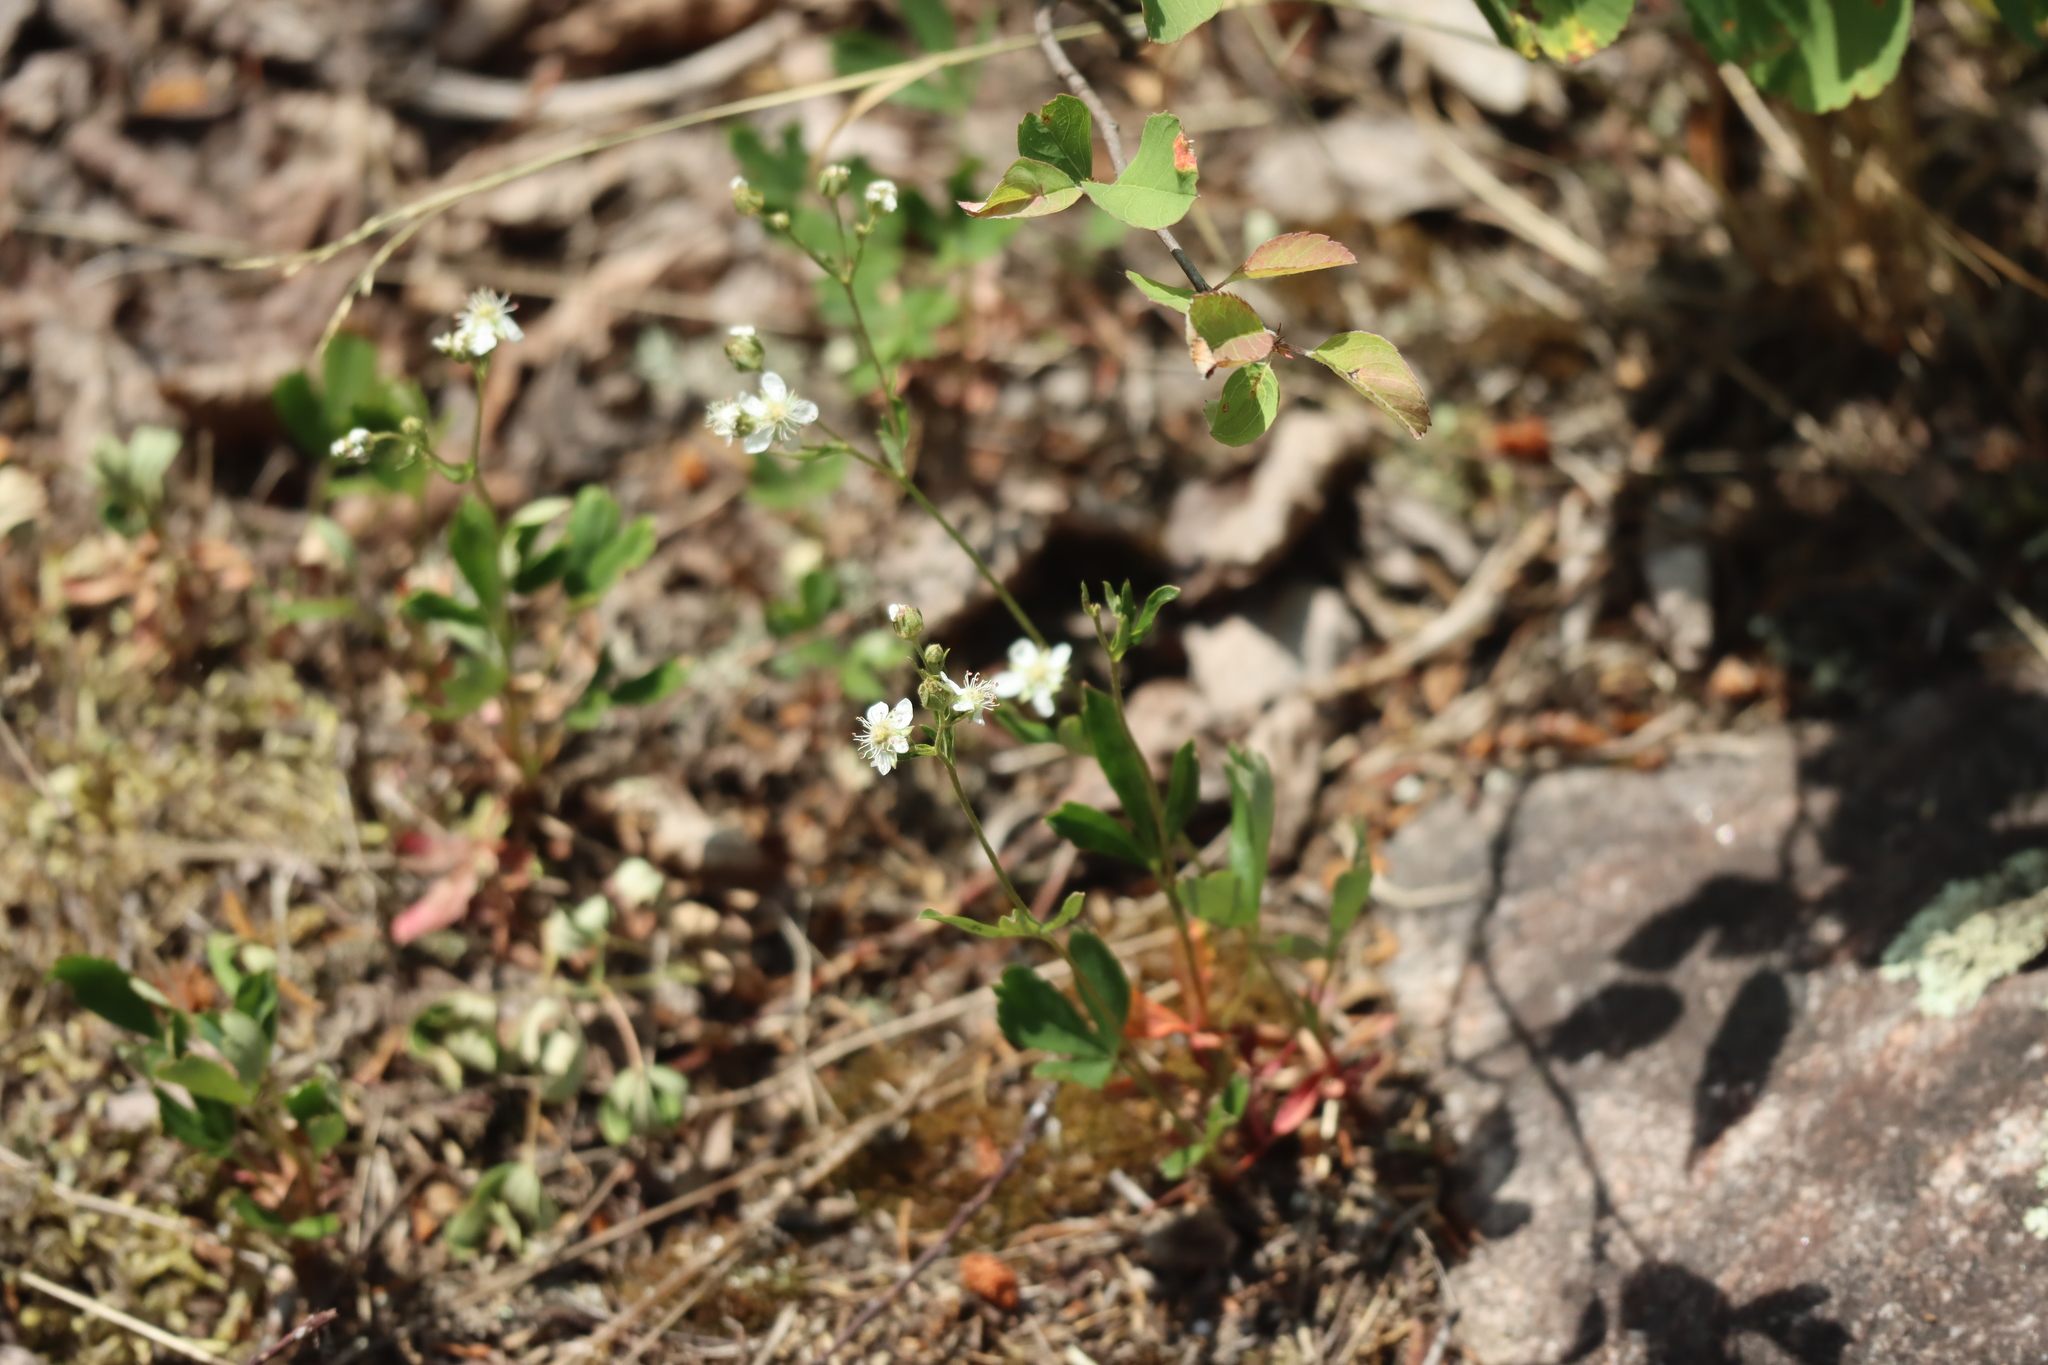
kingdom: Plantae
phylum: Tracheophyta
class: Magnoliopsida
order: Rosales
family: Rosaceae
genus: Sibbaldia
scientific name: Sibbaldia tridentata
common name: Three-toothed cinquefoil
